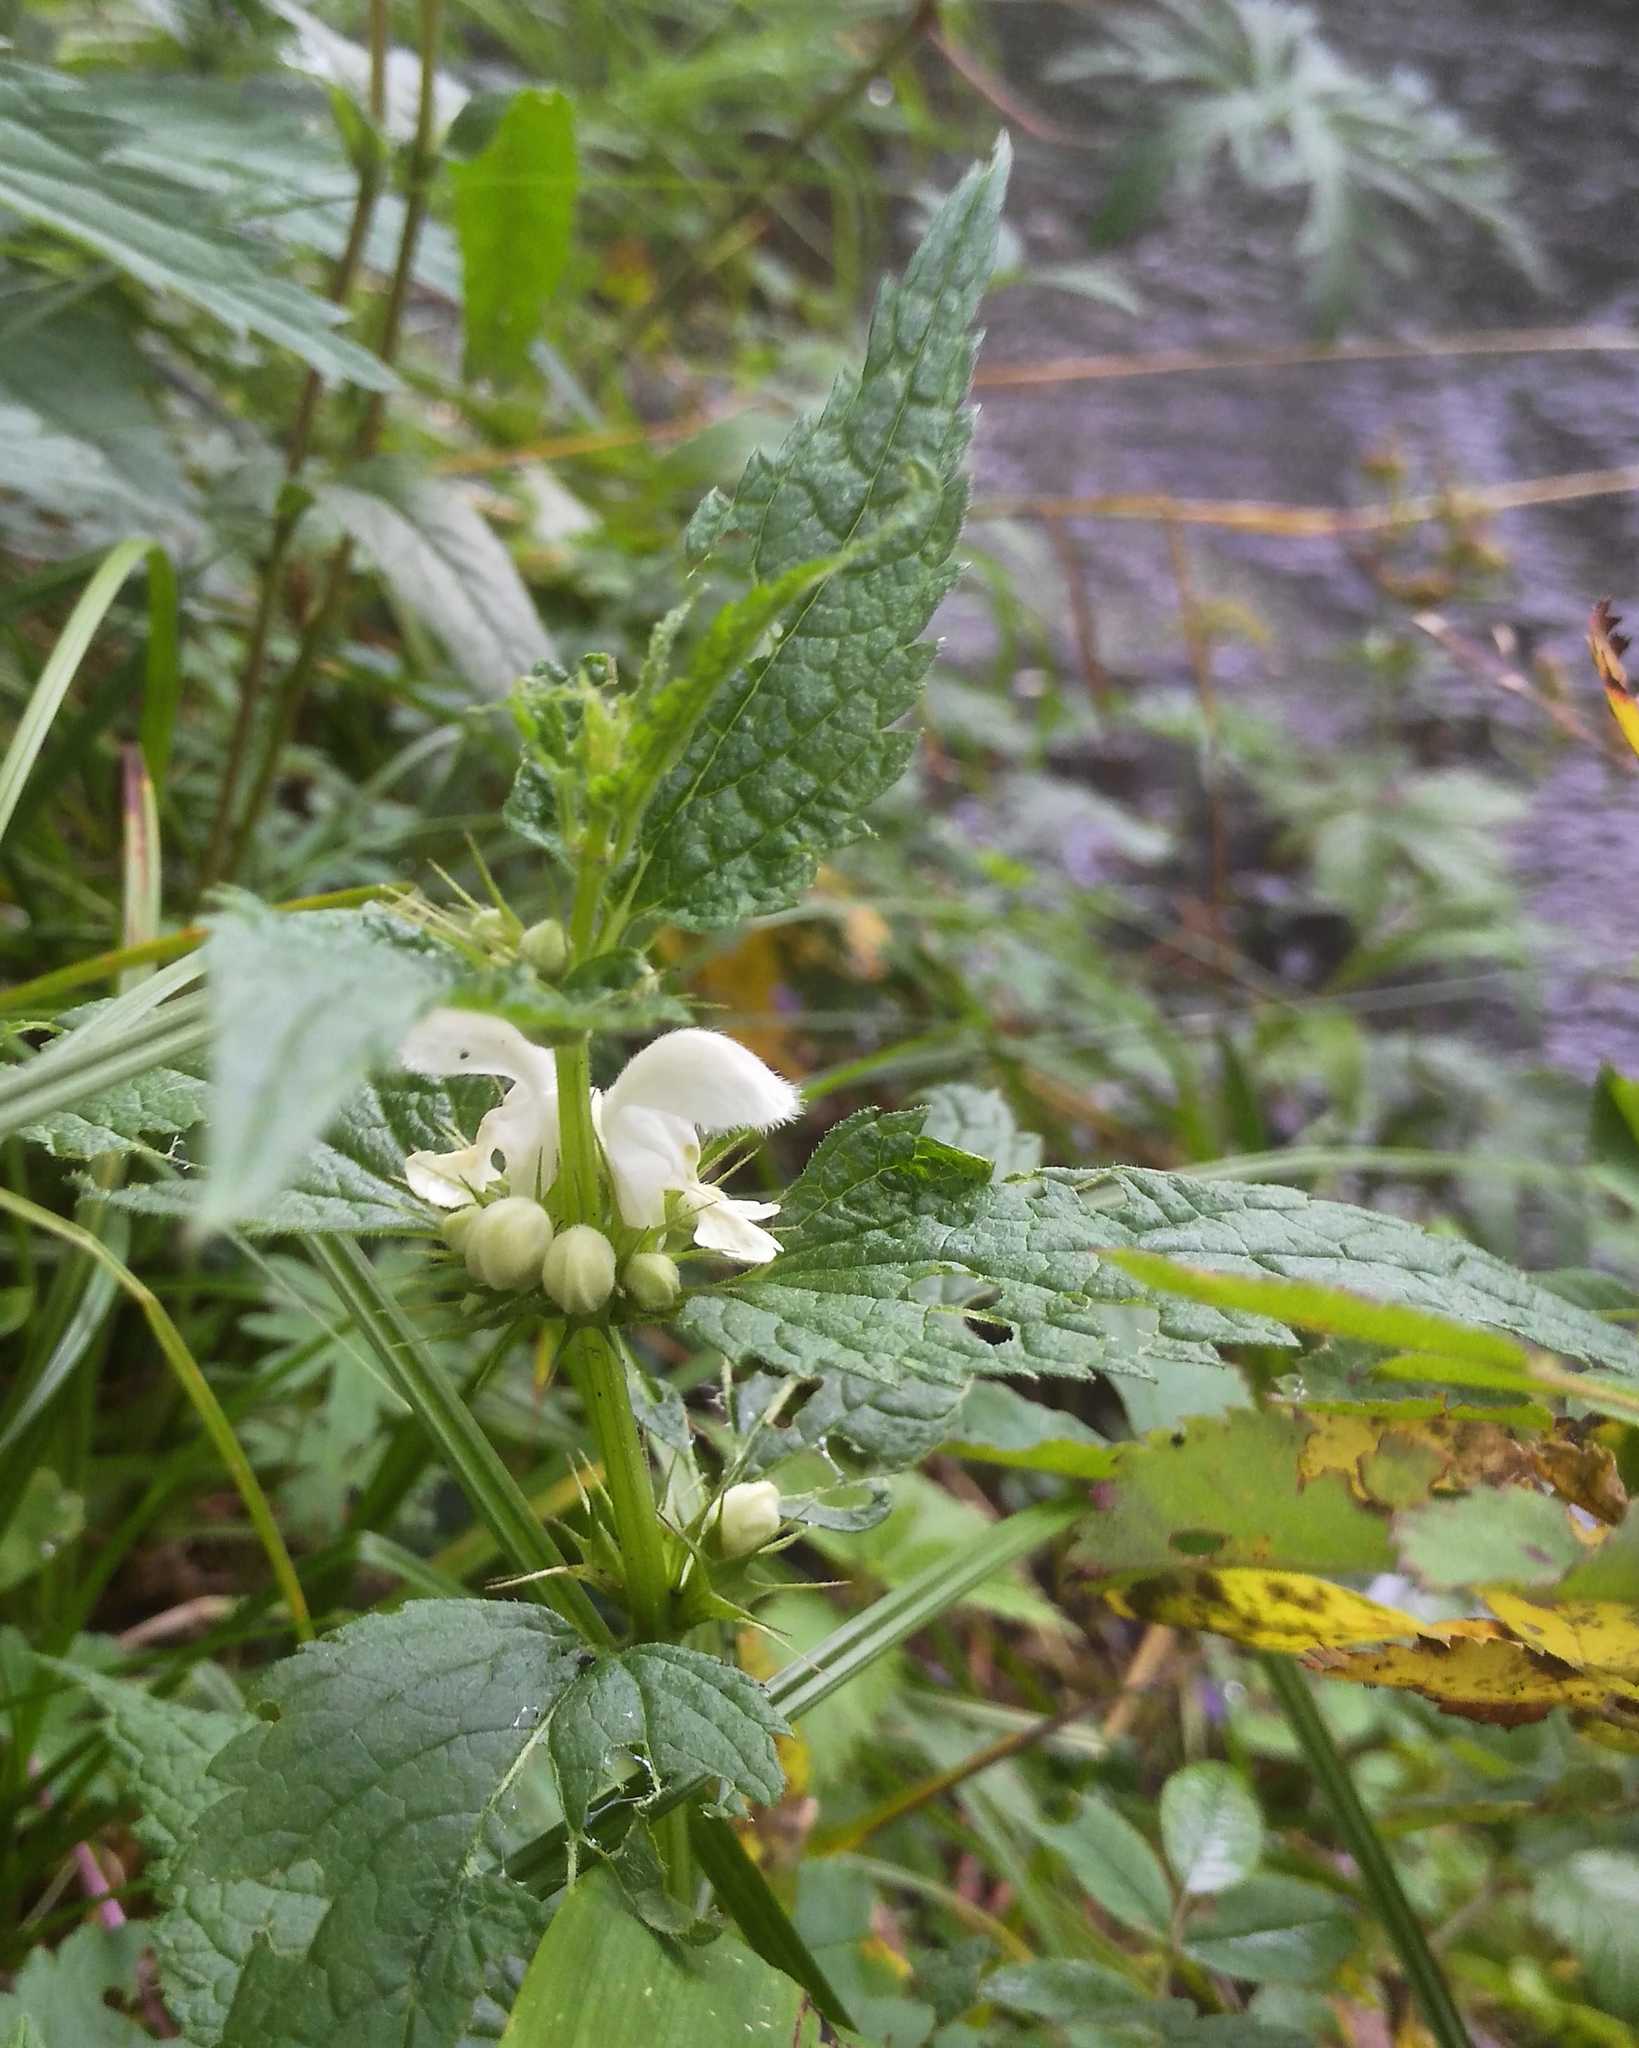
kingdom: Plantae
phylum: Tracheophyta
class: Magnoliopsida
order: Lamiales
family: Lamiaceae
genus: Lamium
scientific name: Lamium album
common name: White dead-nettle
